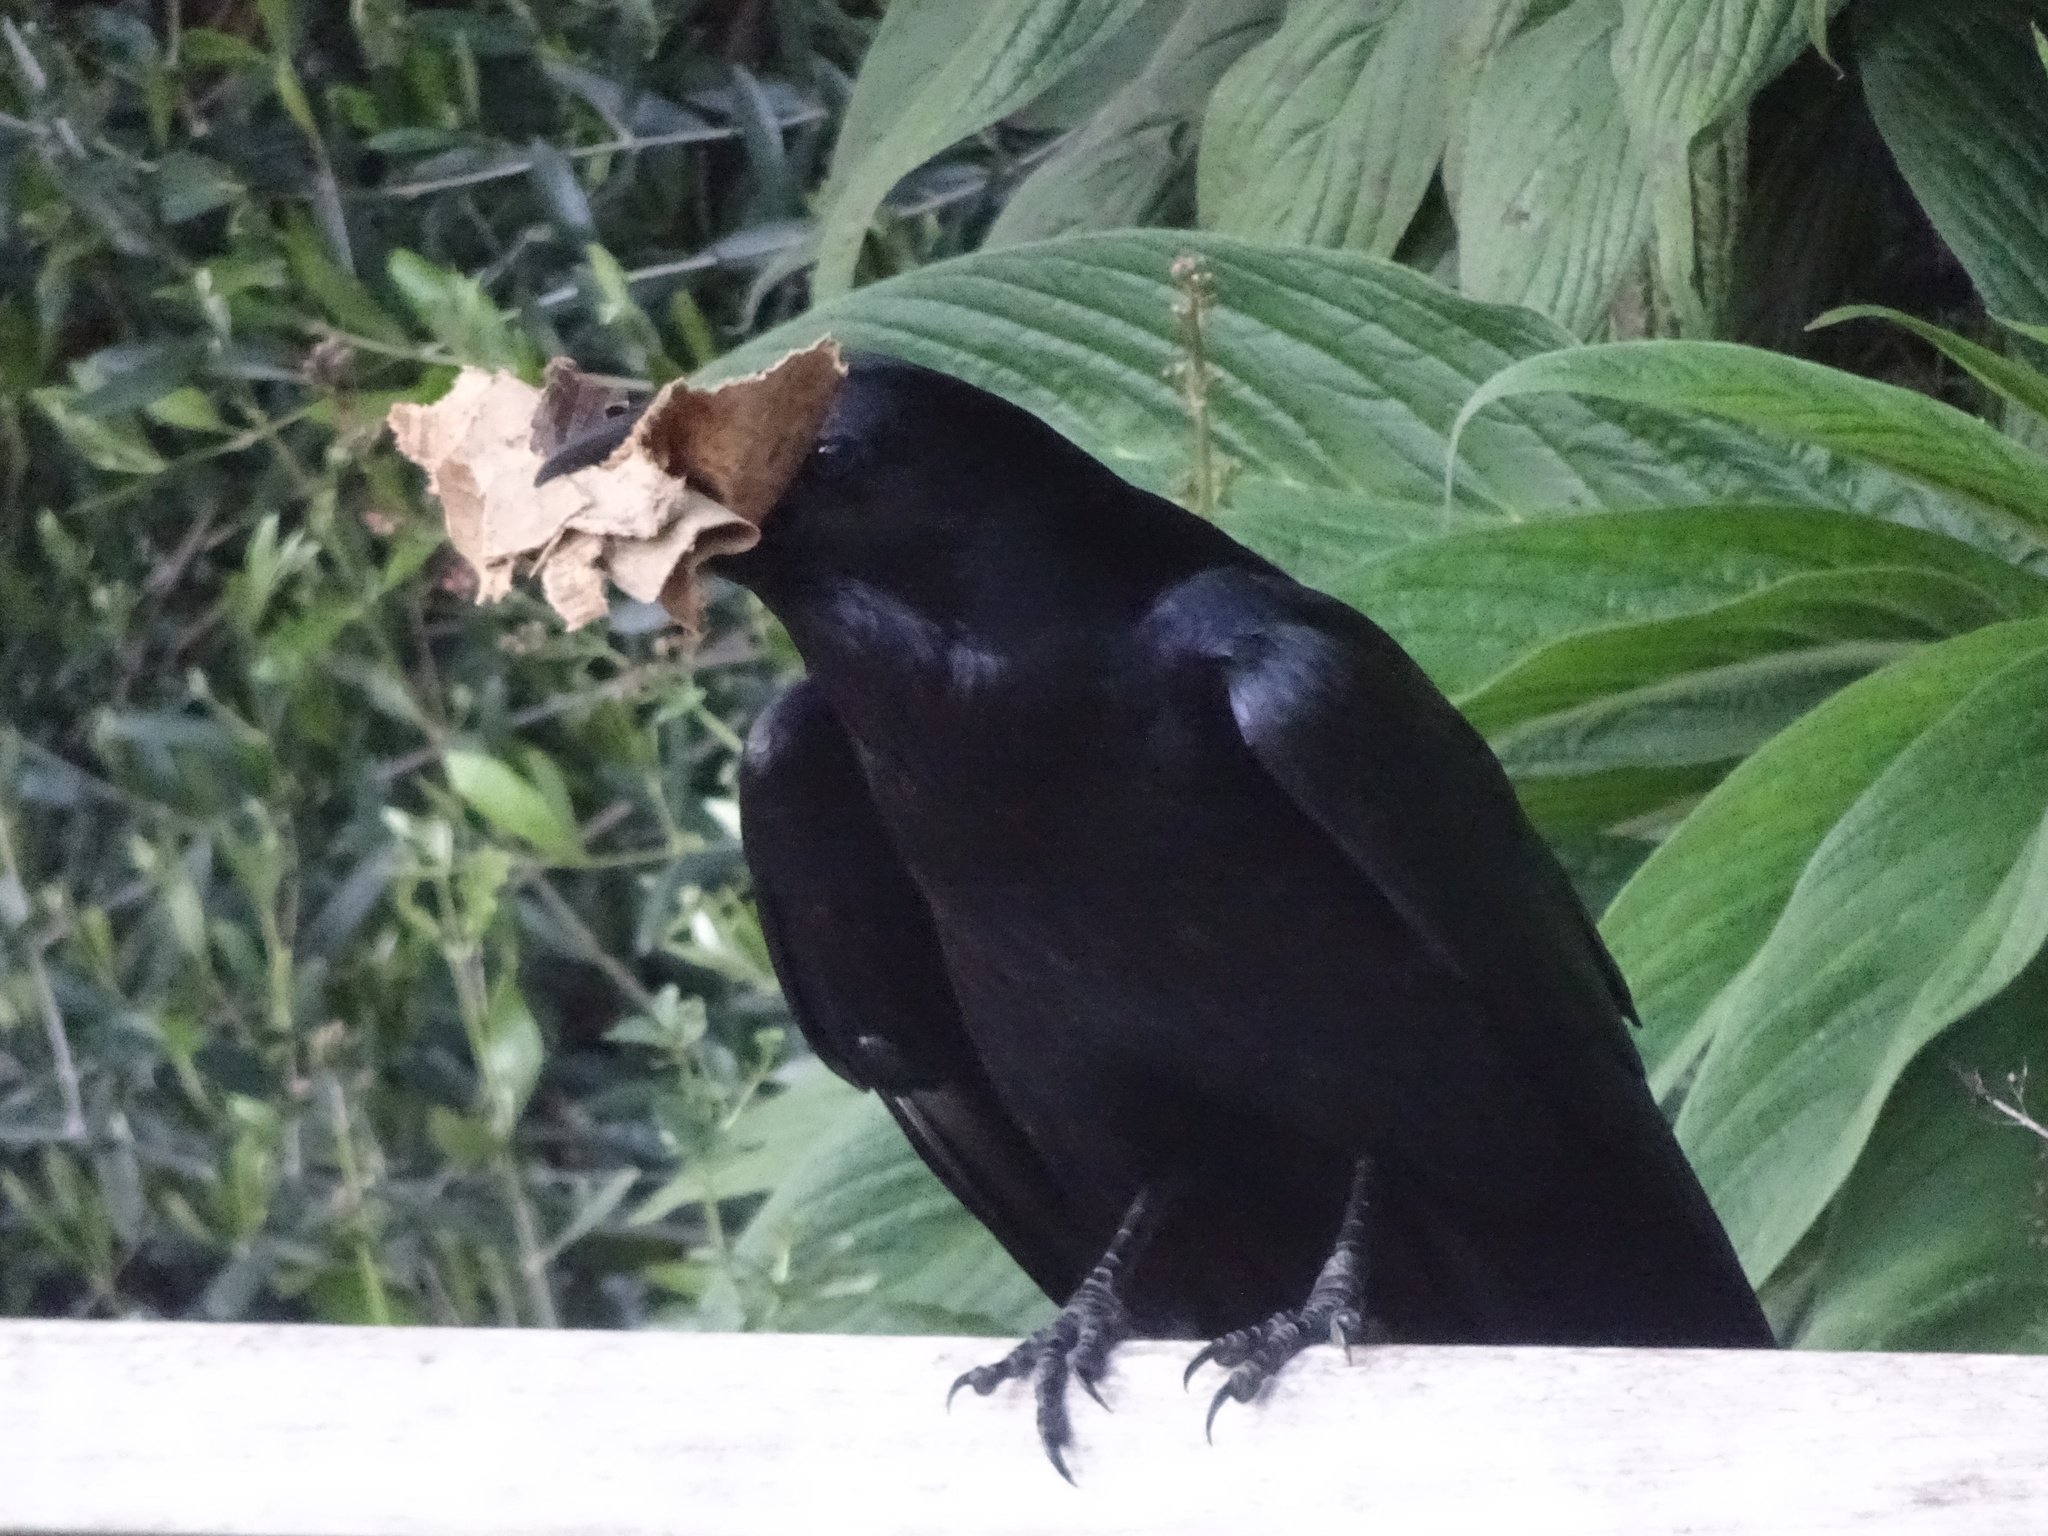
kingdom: Animalia
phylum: Chordata
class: Aves
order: Passeriformes
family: Corvidae
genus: Corvus
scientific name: Corvus corax
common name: Common raven
